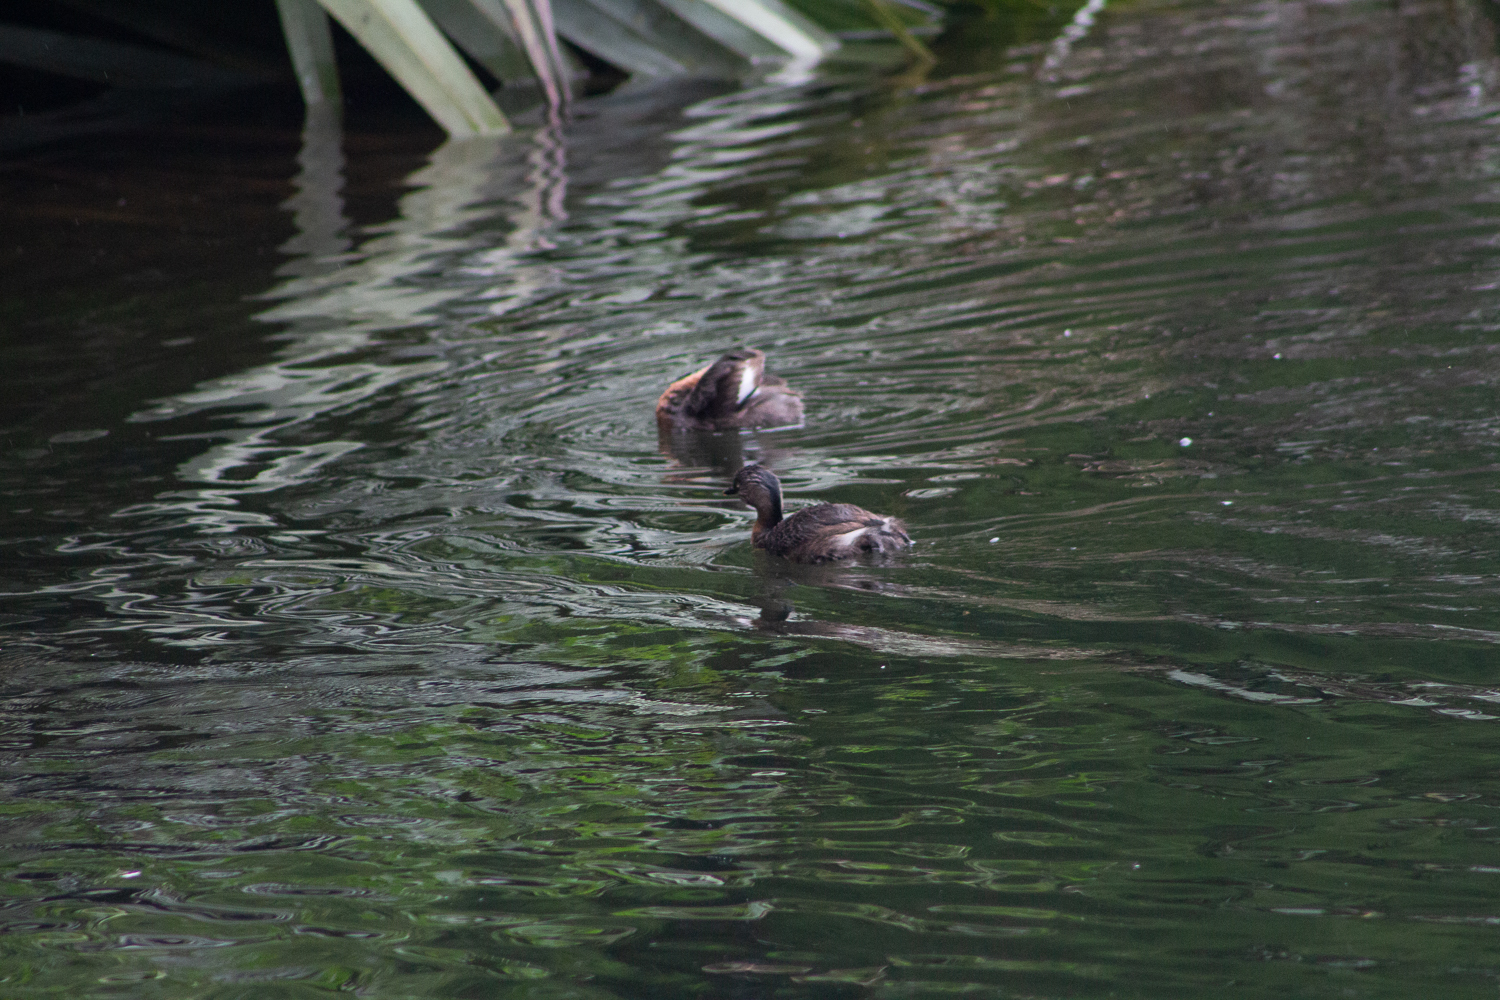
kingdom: Animalia
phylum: Chordata
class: Aves
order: Podicipediformes
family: Podicipedidae
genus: Poliocephalus
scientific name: Poliocephalus rufopectus
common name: New zealand grebe
